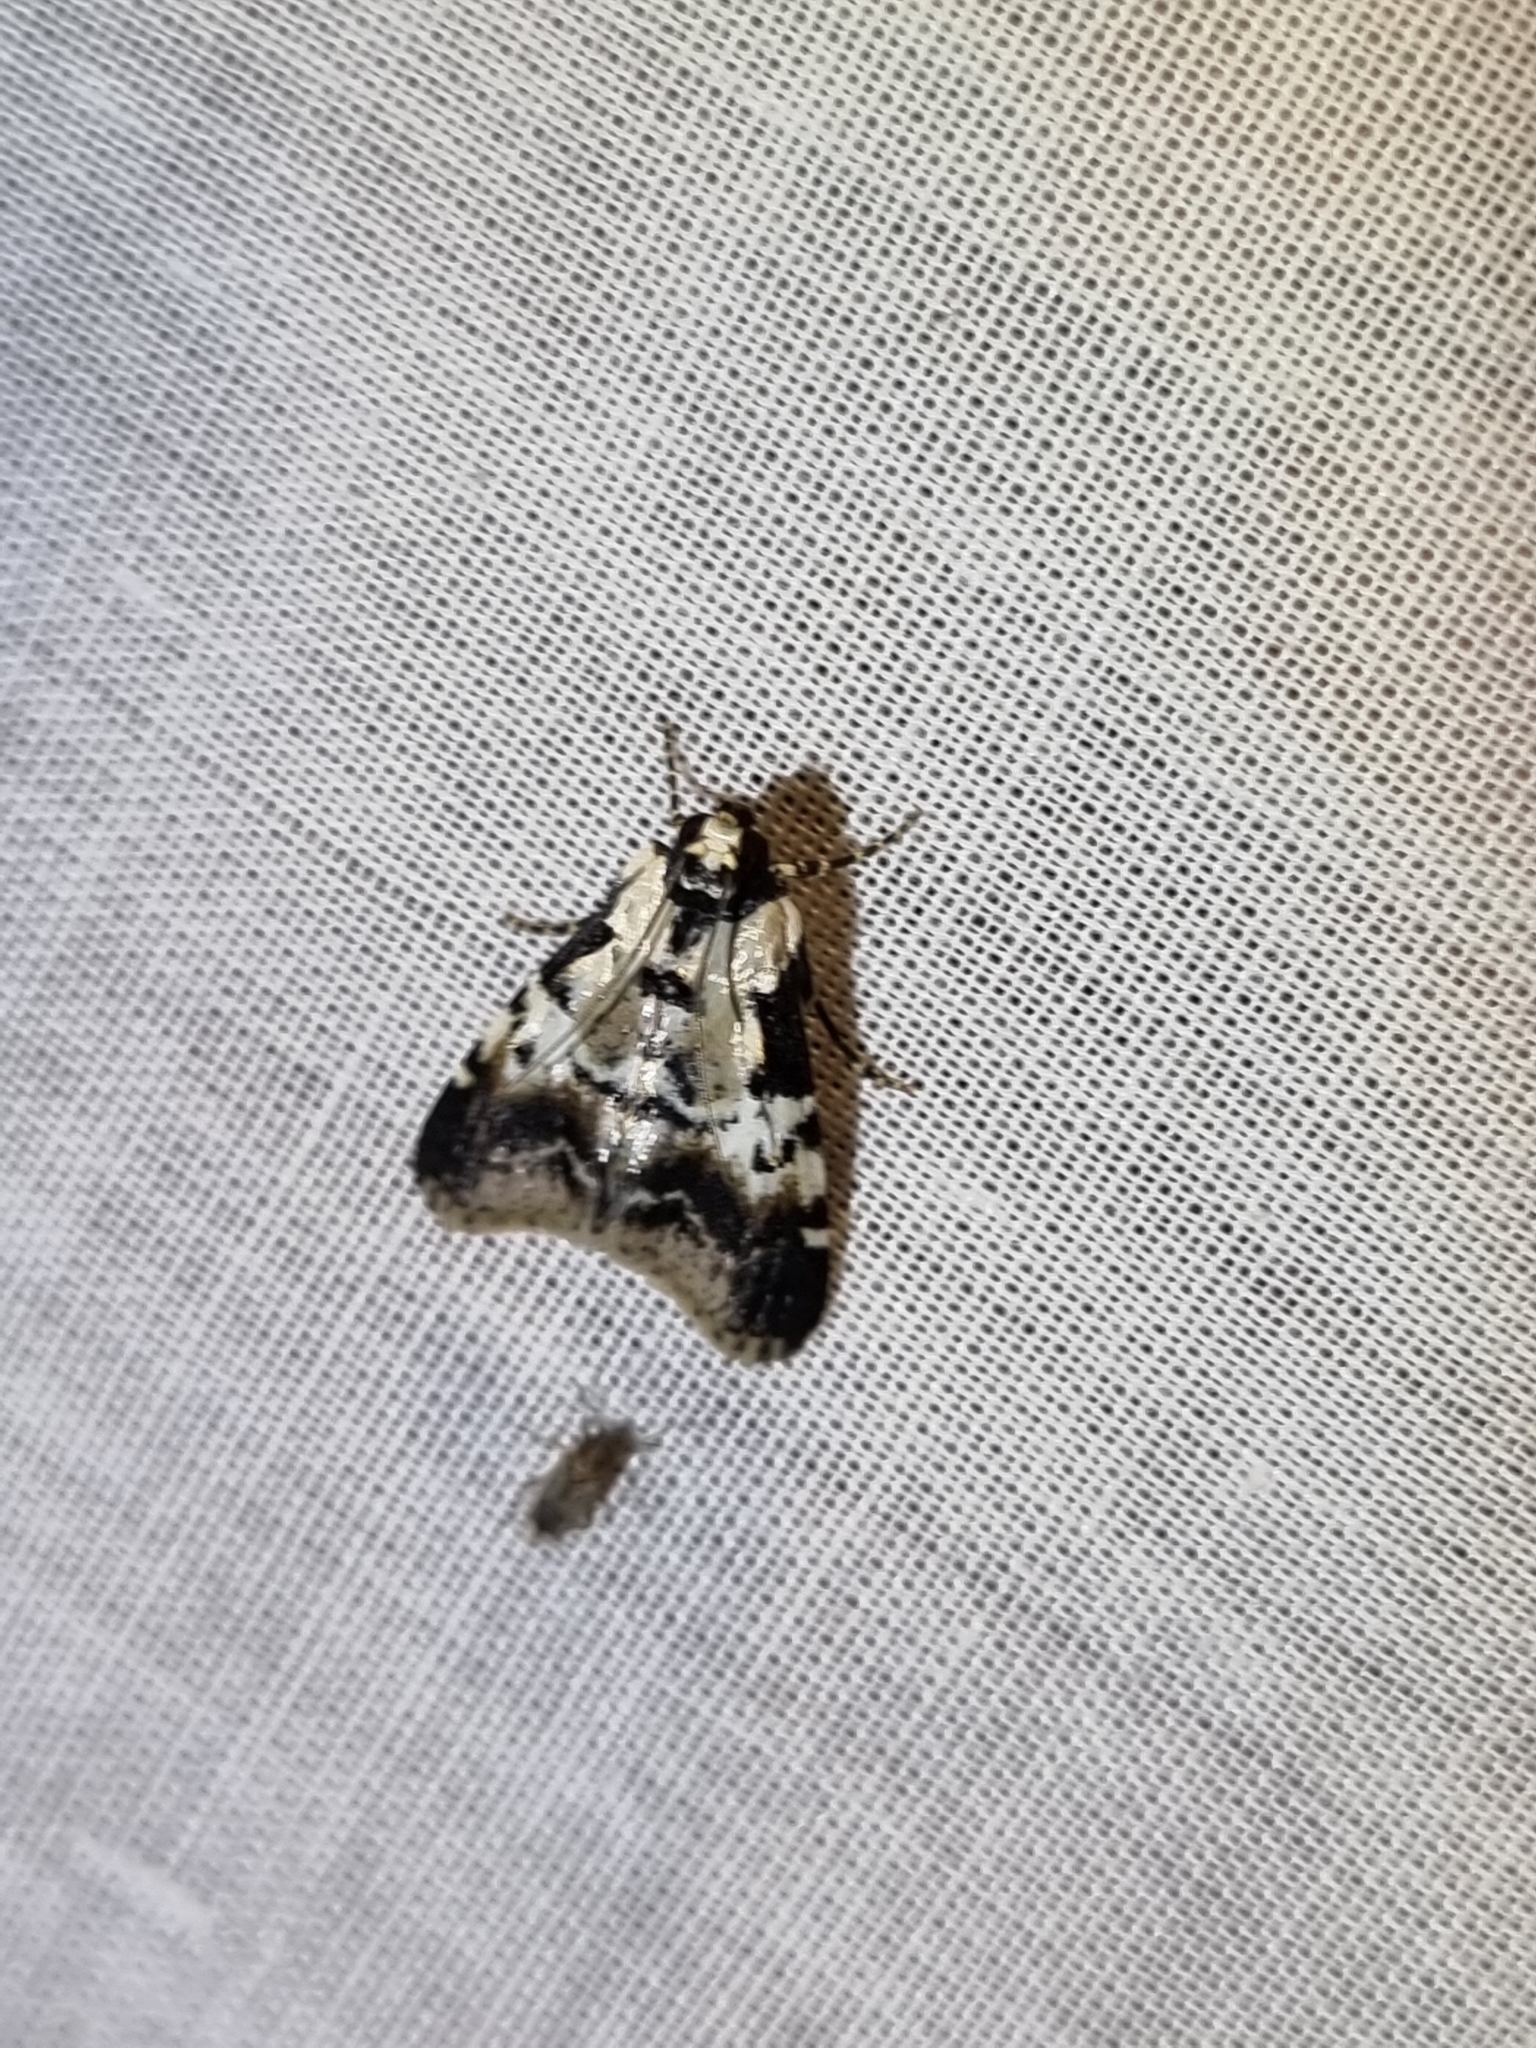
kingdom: Animalia
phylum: Arthropoda
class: Insecta
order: Lepidoptera
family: Pyralidae
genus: Orthaga
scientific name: Orthaga seminivea
